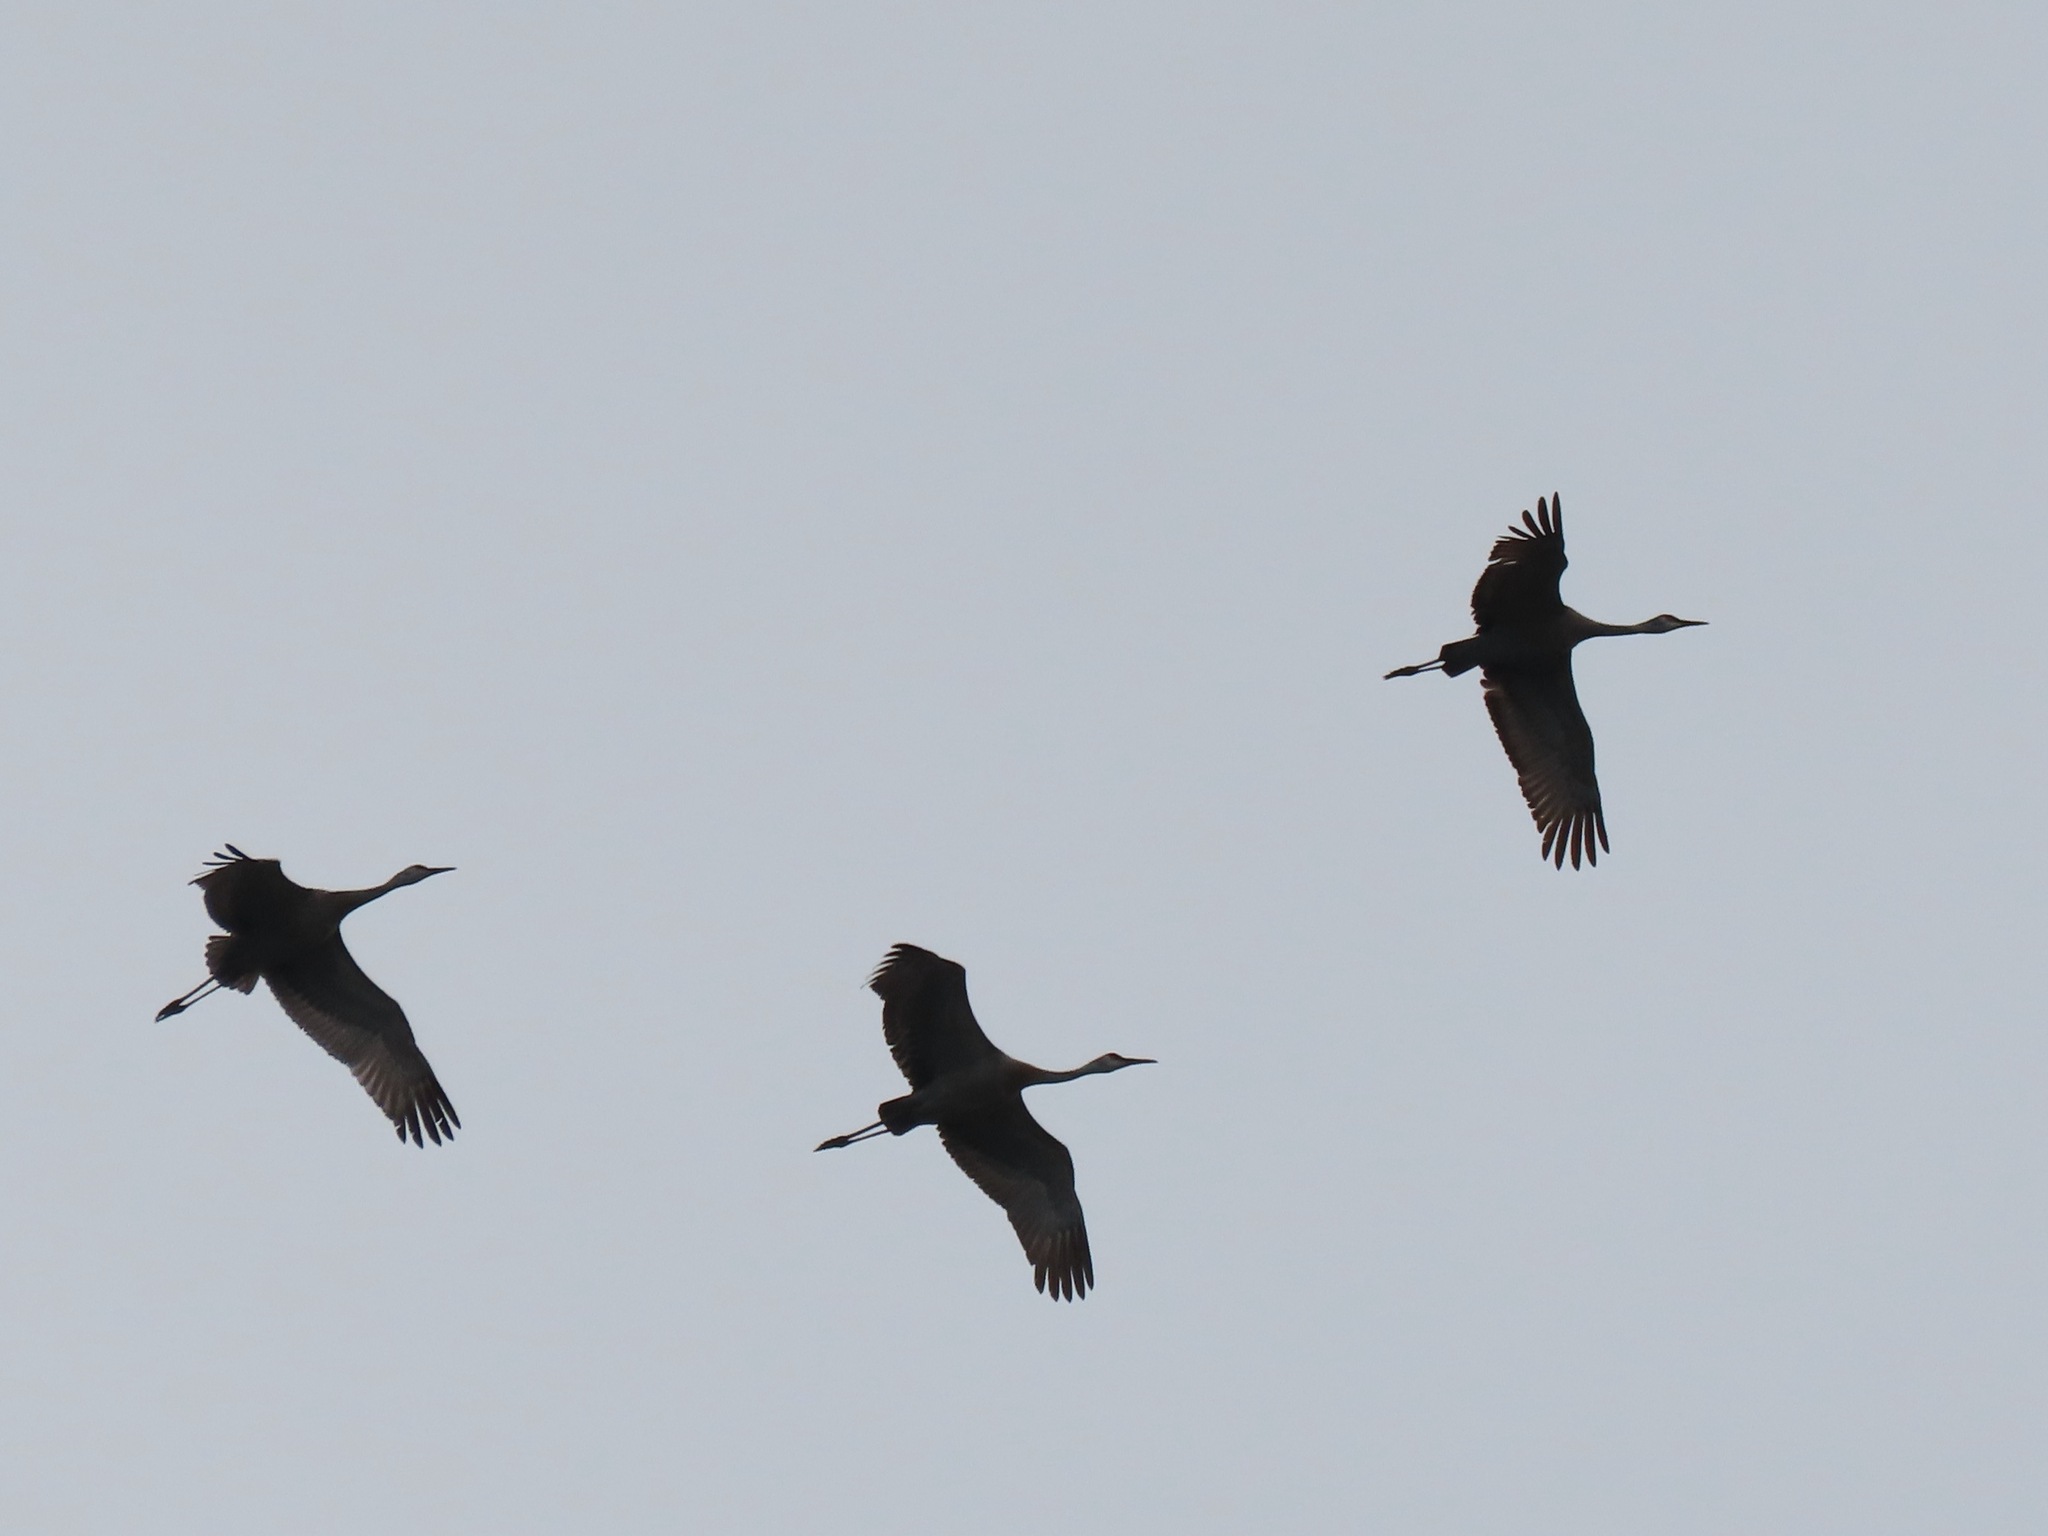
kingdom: Animalia
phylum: Chordata
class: Aves
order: Gruiformes
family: Gruidae
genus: Grus
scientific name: Grus canadensis
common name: Sandhill crane
